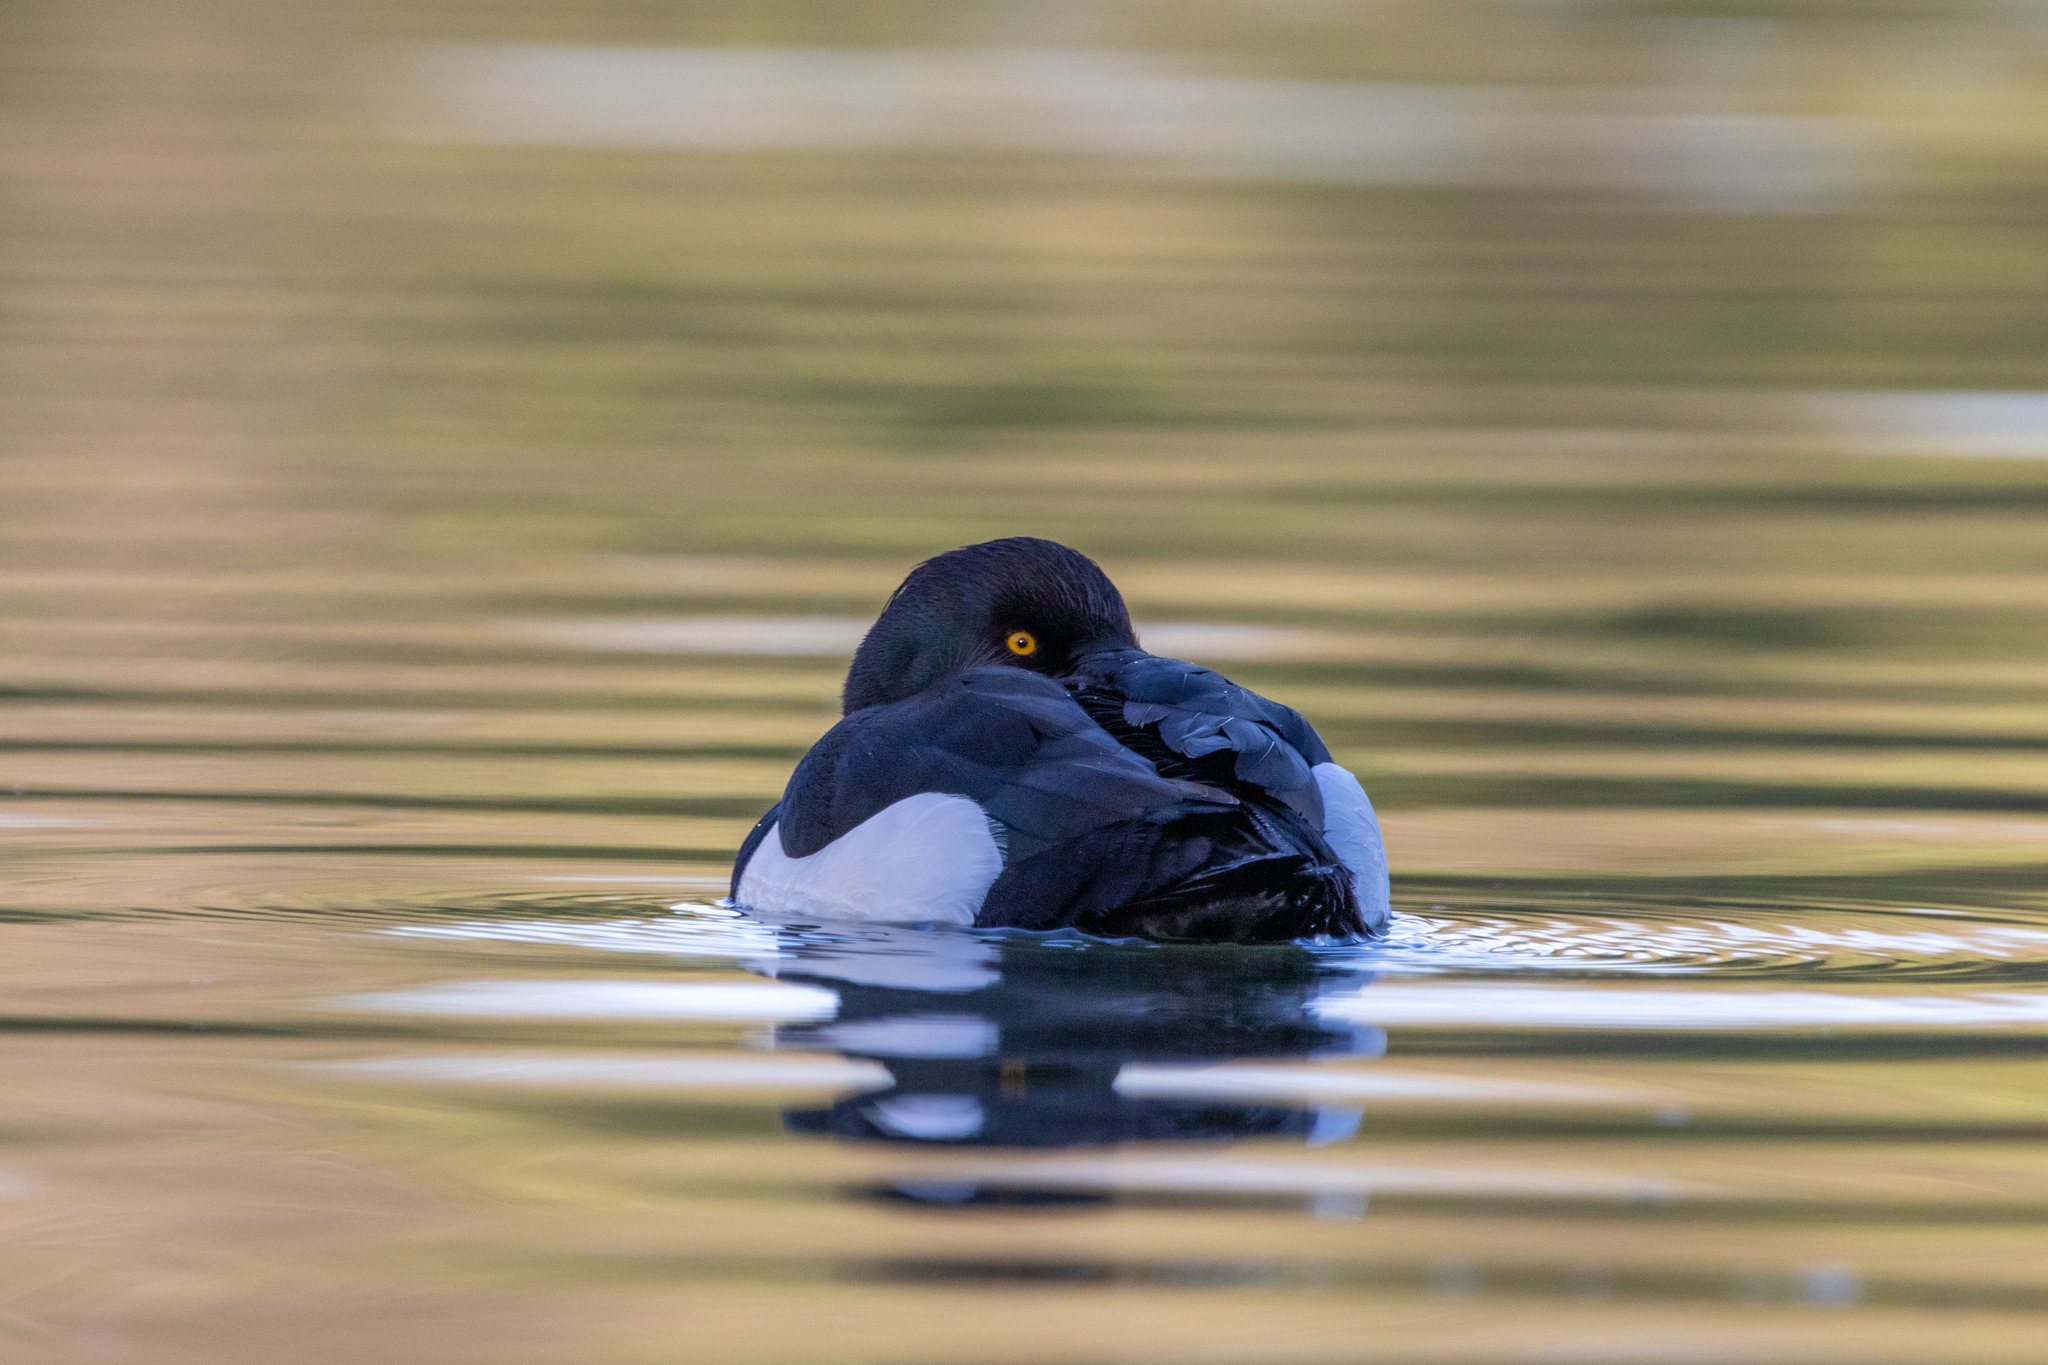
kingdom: Animalia
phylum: Chordata
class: Aves
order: Anseriformes
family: Anatidae
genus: Aythya
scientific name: Aythya fuligula
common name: Tufted duck
